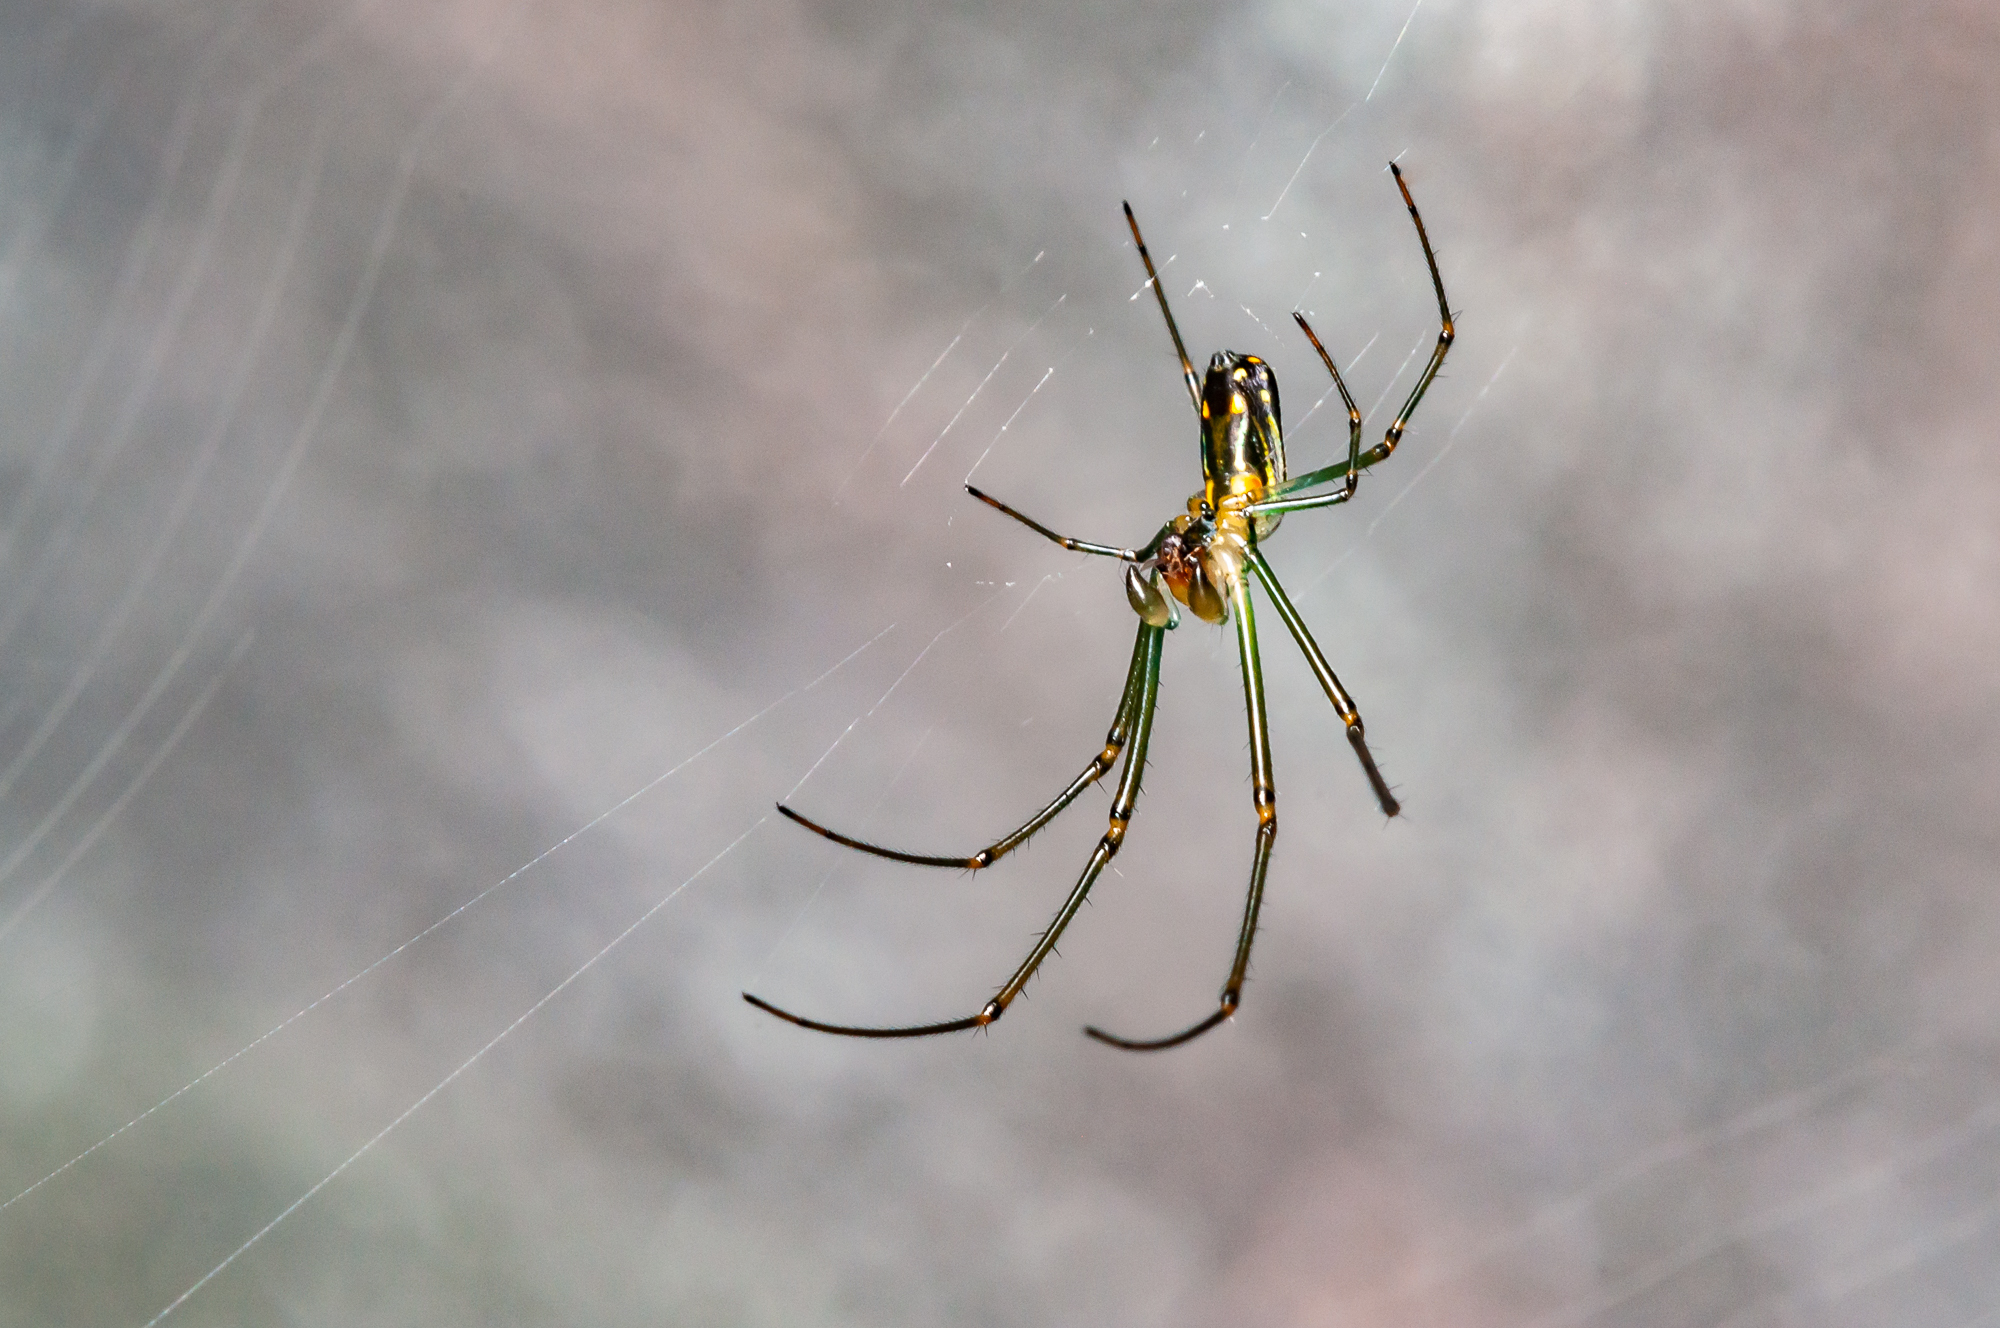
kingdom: Animalia
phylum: Arthropoda
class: Arachnida
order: Araneae
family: Tetragnathidae
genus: Leucauge
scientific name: Leucauge argyra
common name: Longjawed orb weavers
